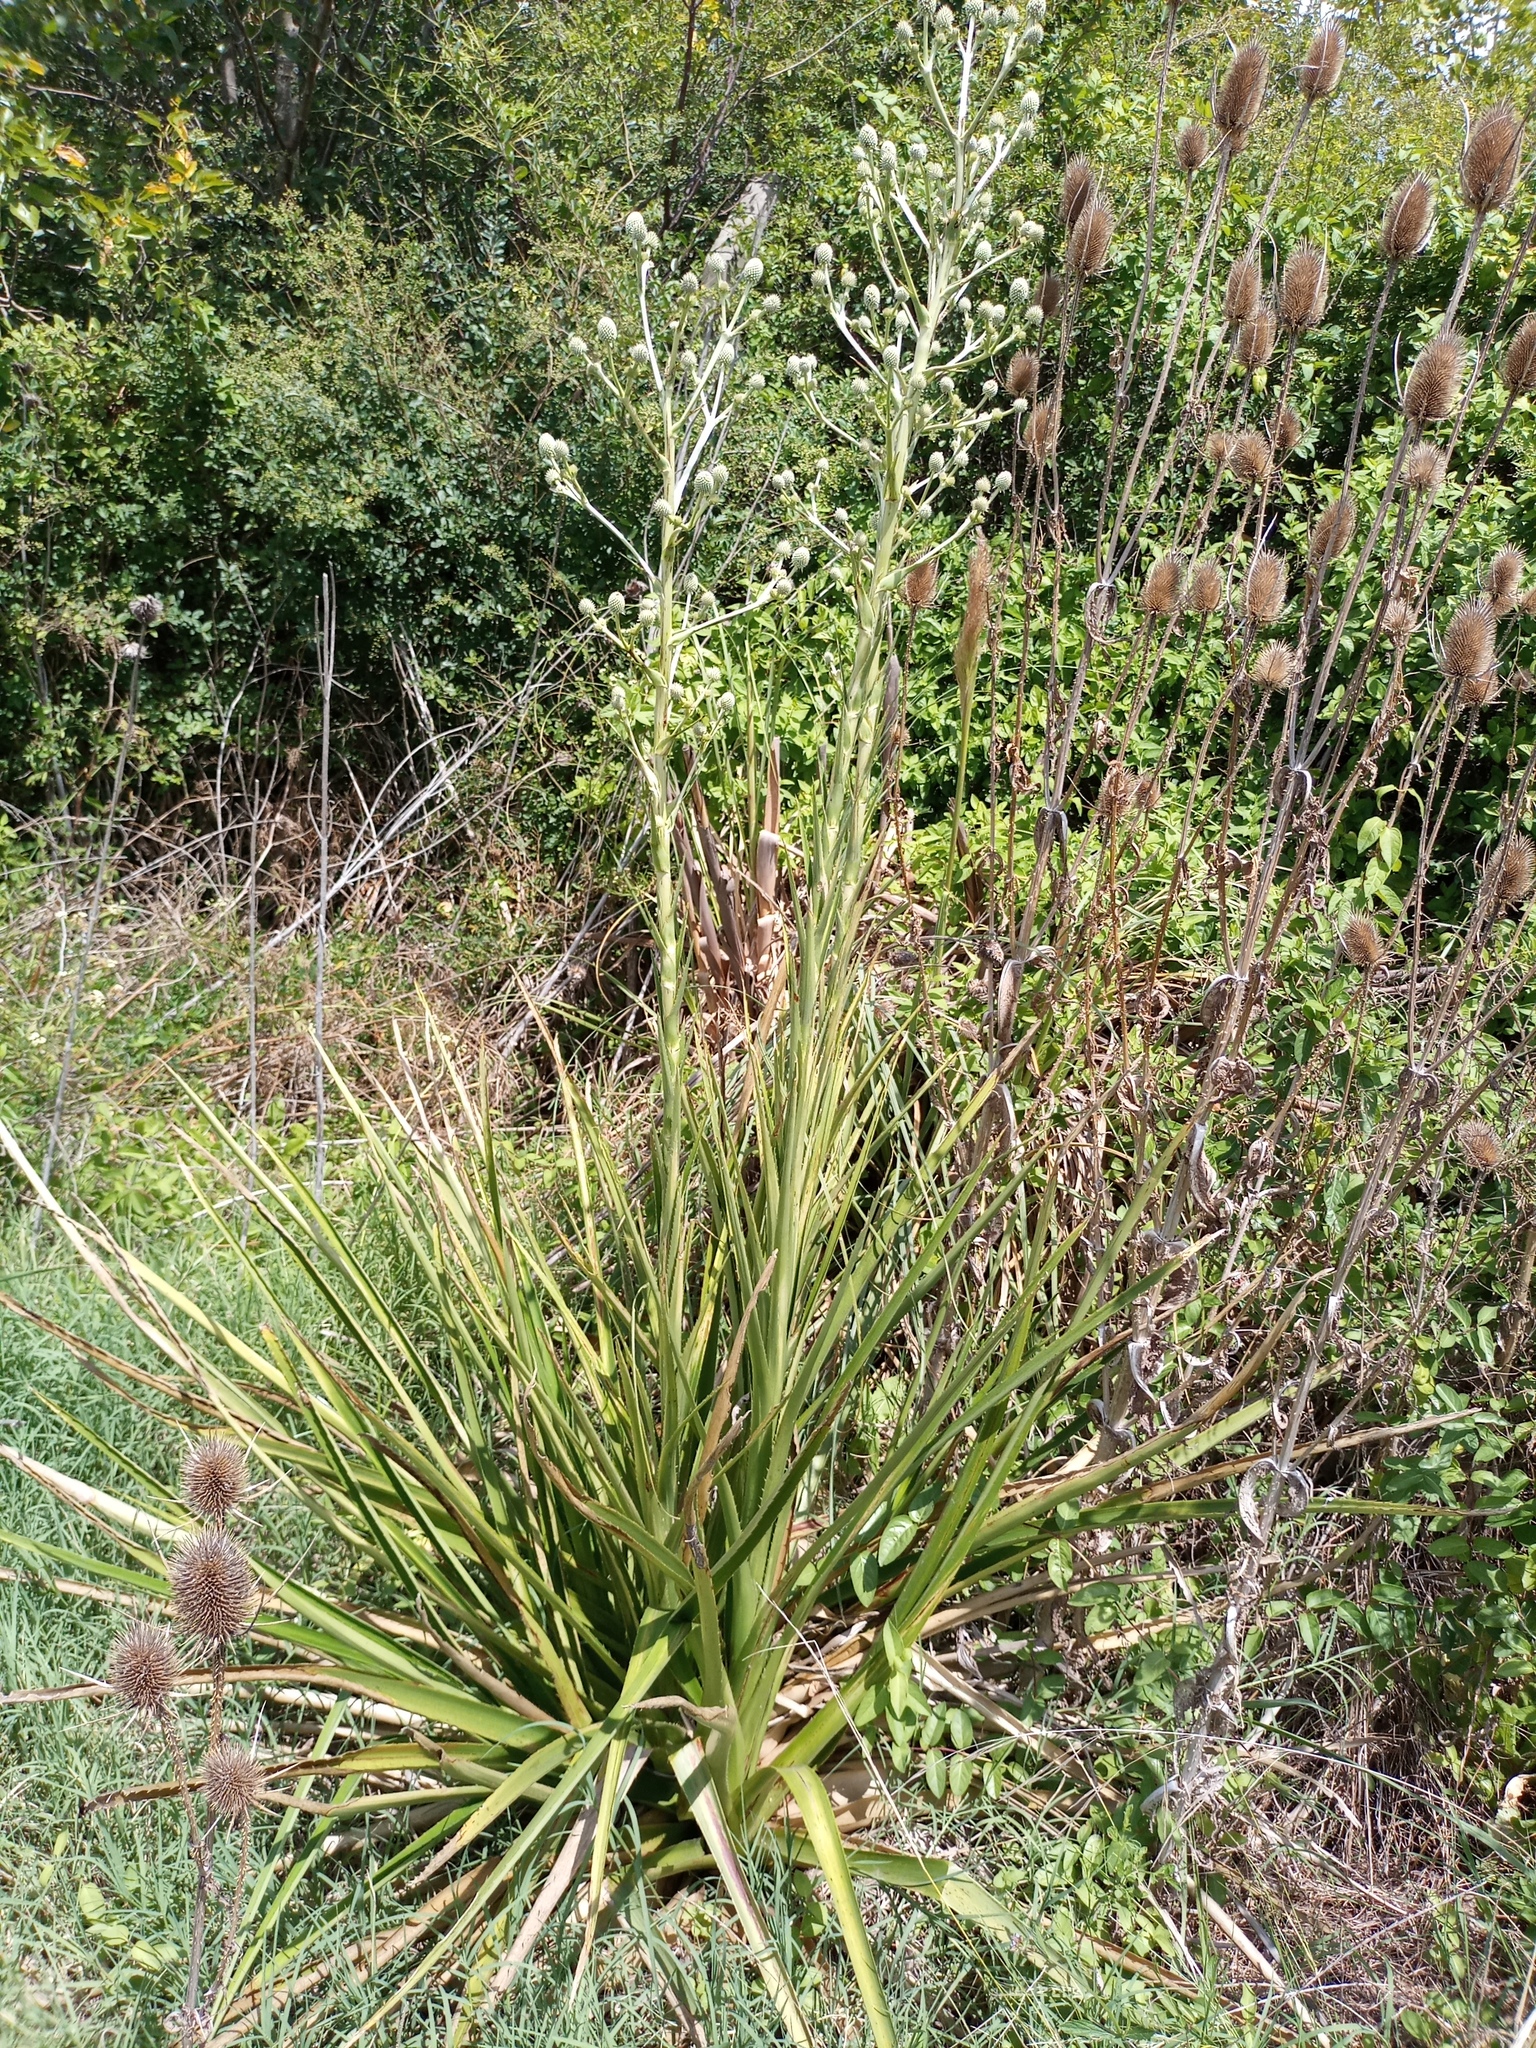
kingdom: Plantae
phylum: Tracheophyta
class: Magnoliopsida
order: Apiales
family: Apiaceae
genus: Eryngium
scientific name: Eryngium eburneum
